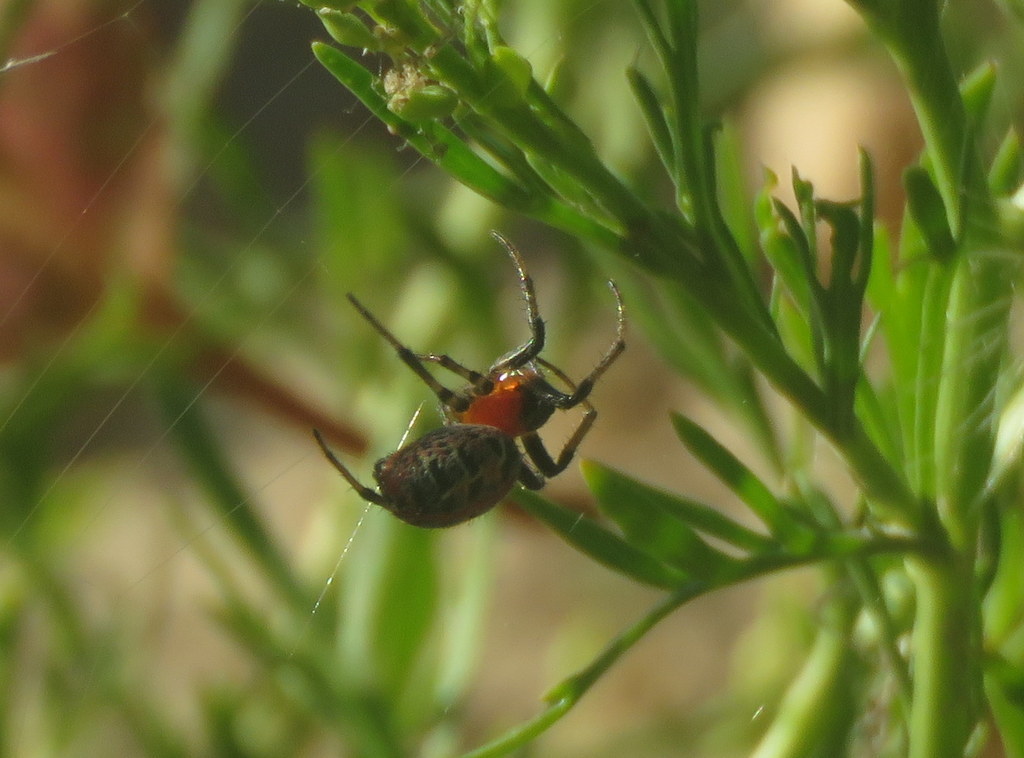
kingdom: Animalia
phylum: Arthropoda
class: Arachnida
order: Araneae
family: Araneidae
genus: Alpaida
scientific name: Alpaida versicolor
